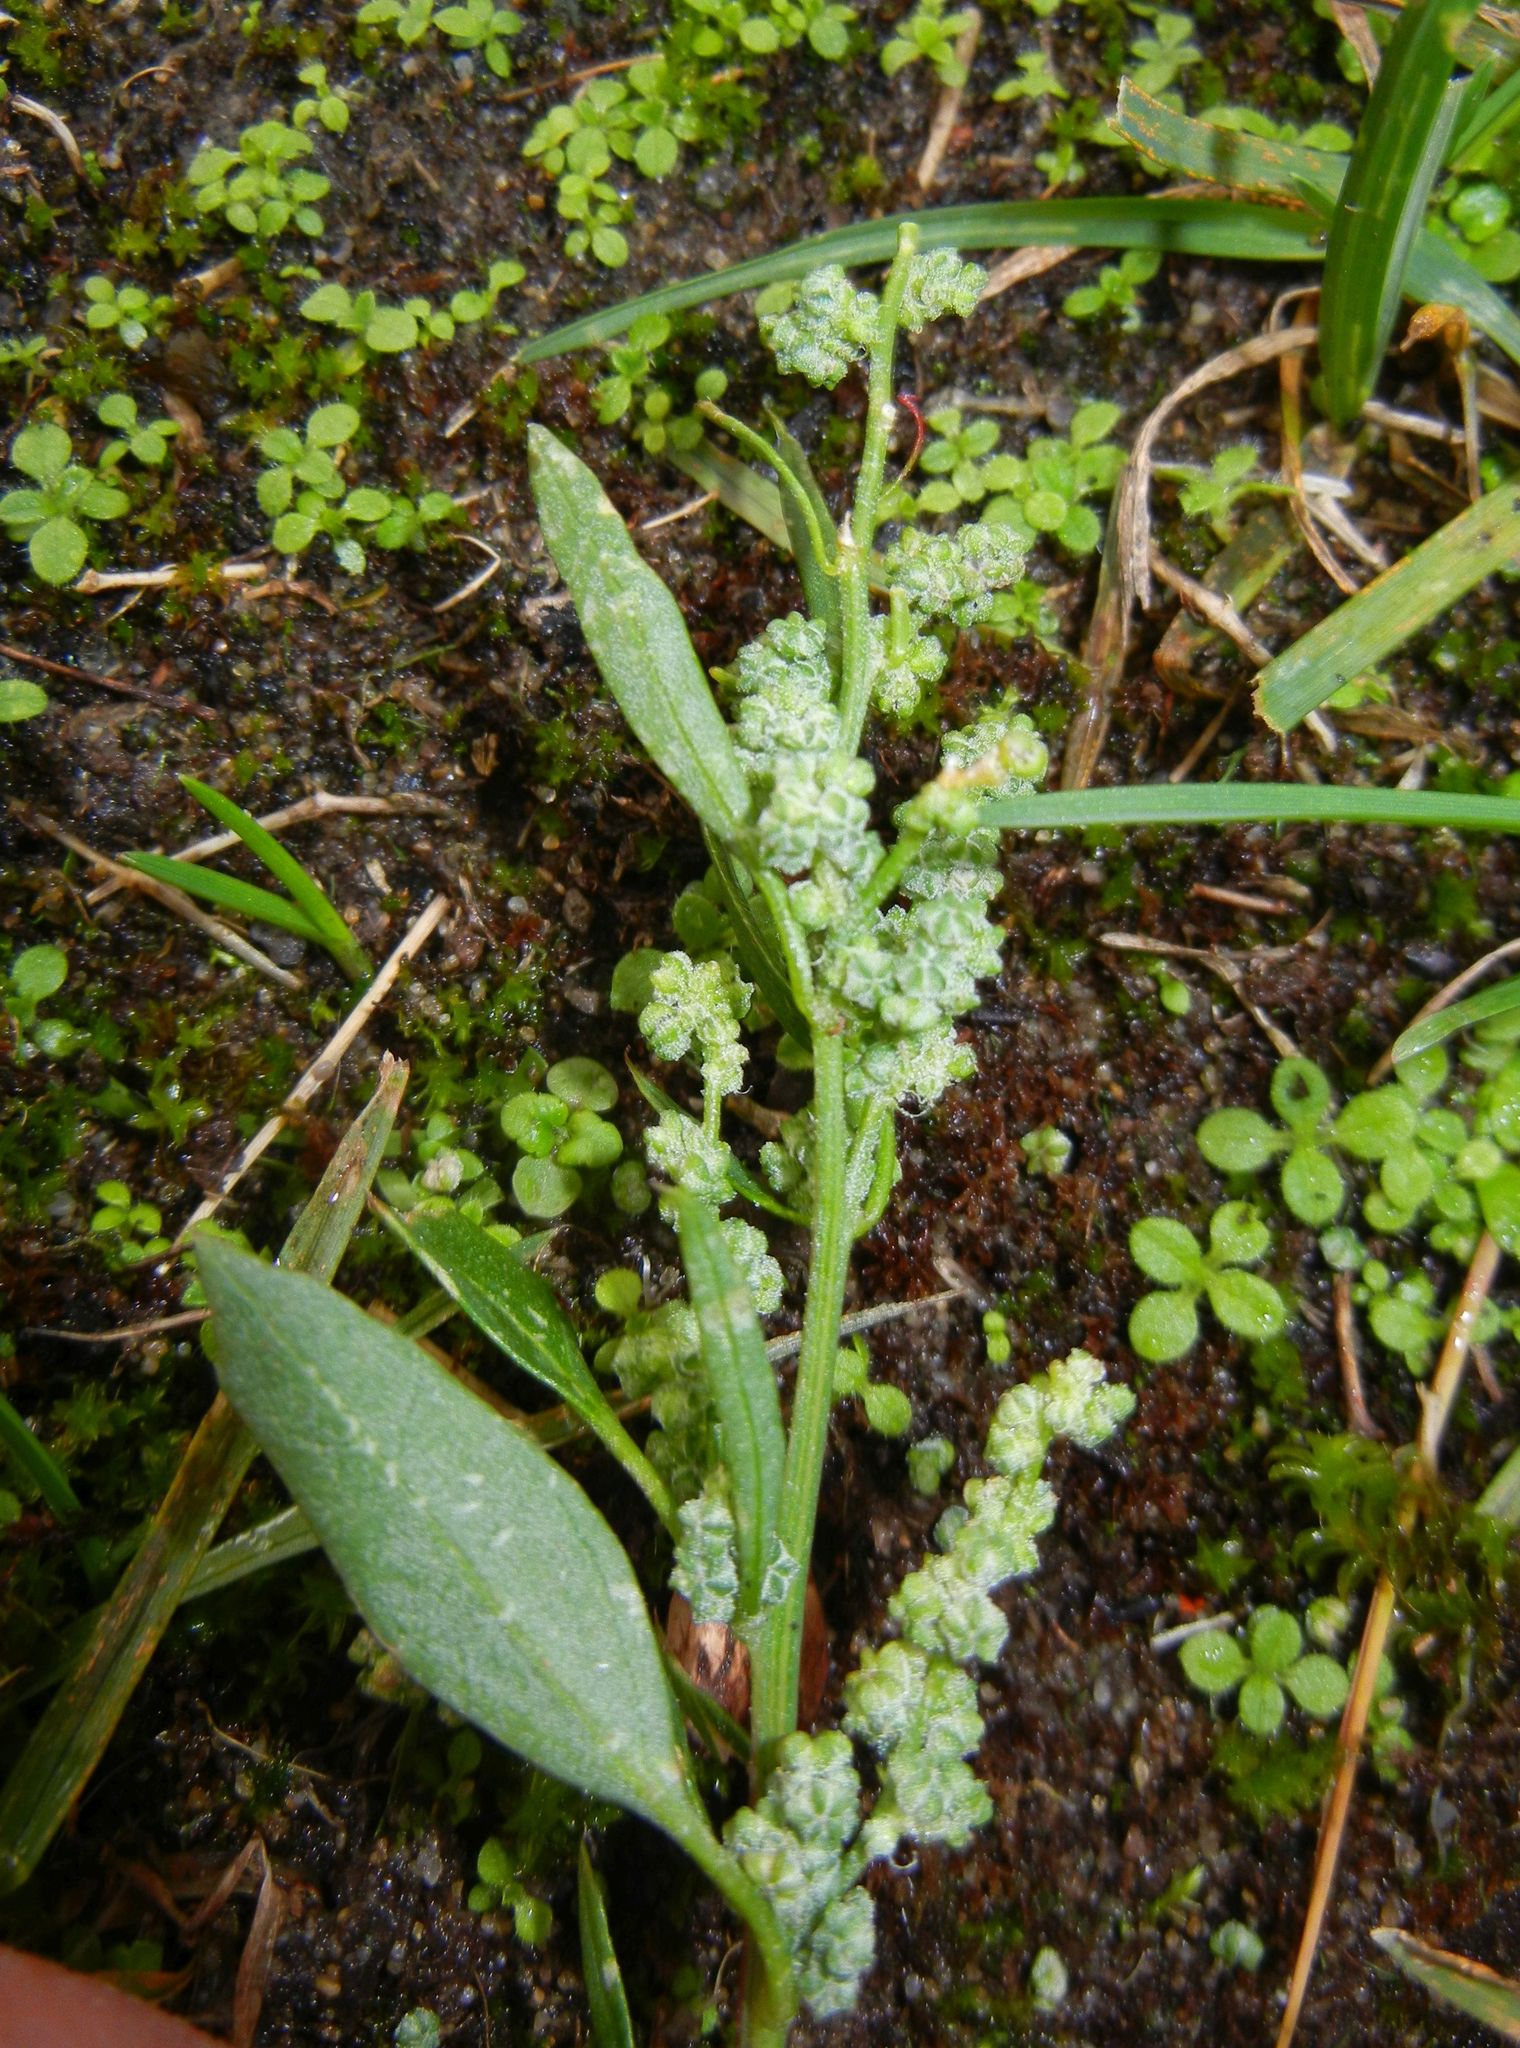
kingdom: Plantae
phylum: Tracheophyta
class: Magnoliopsida
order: Caryophyllales
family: Amaranthaceae
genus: Chenopodium
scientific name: Chenopodium album
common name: Fat-hen
